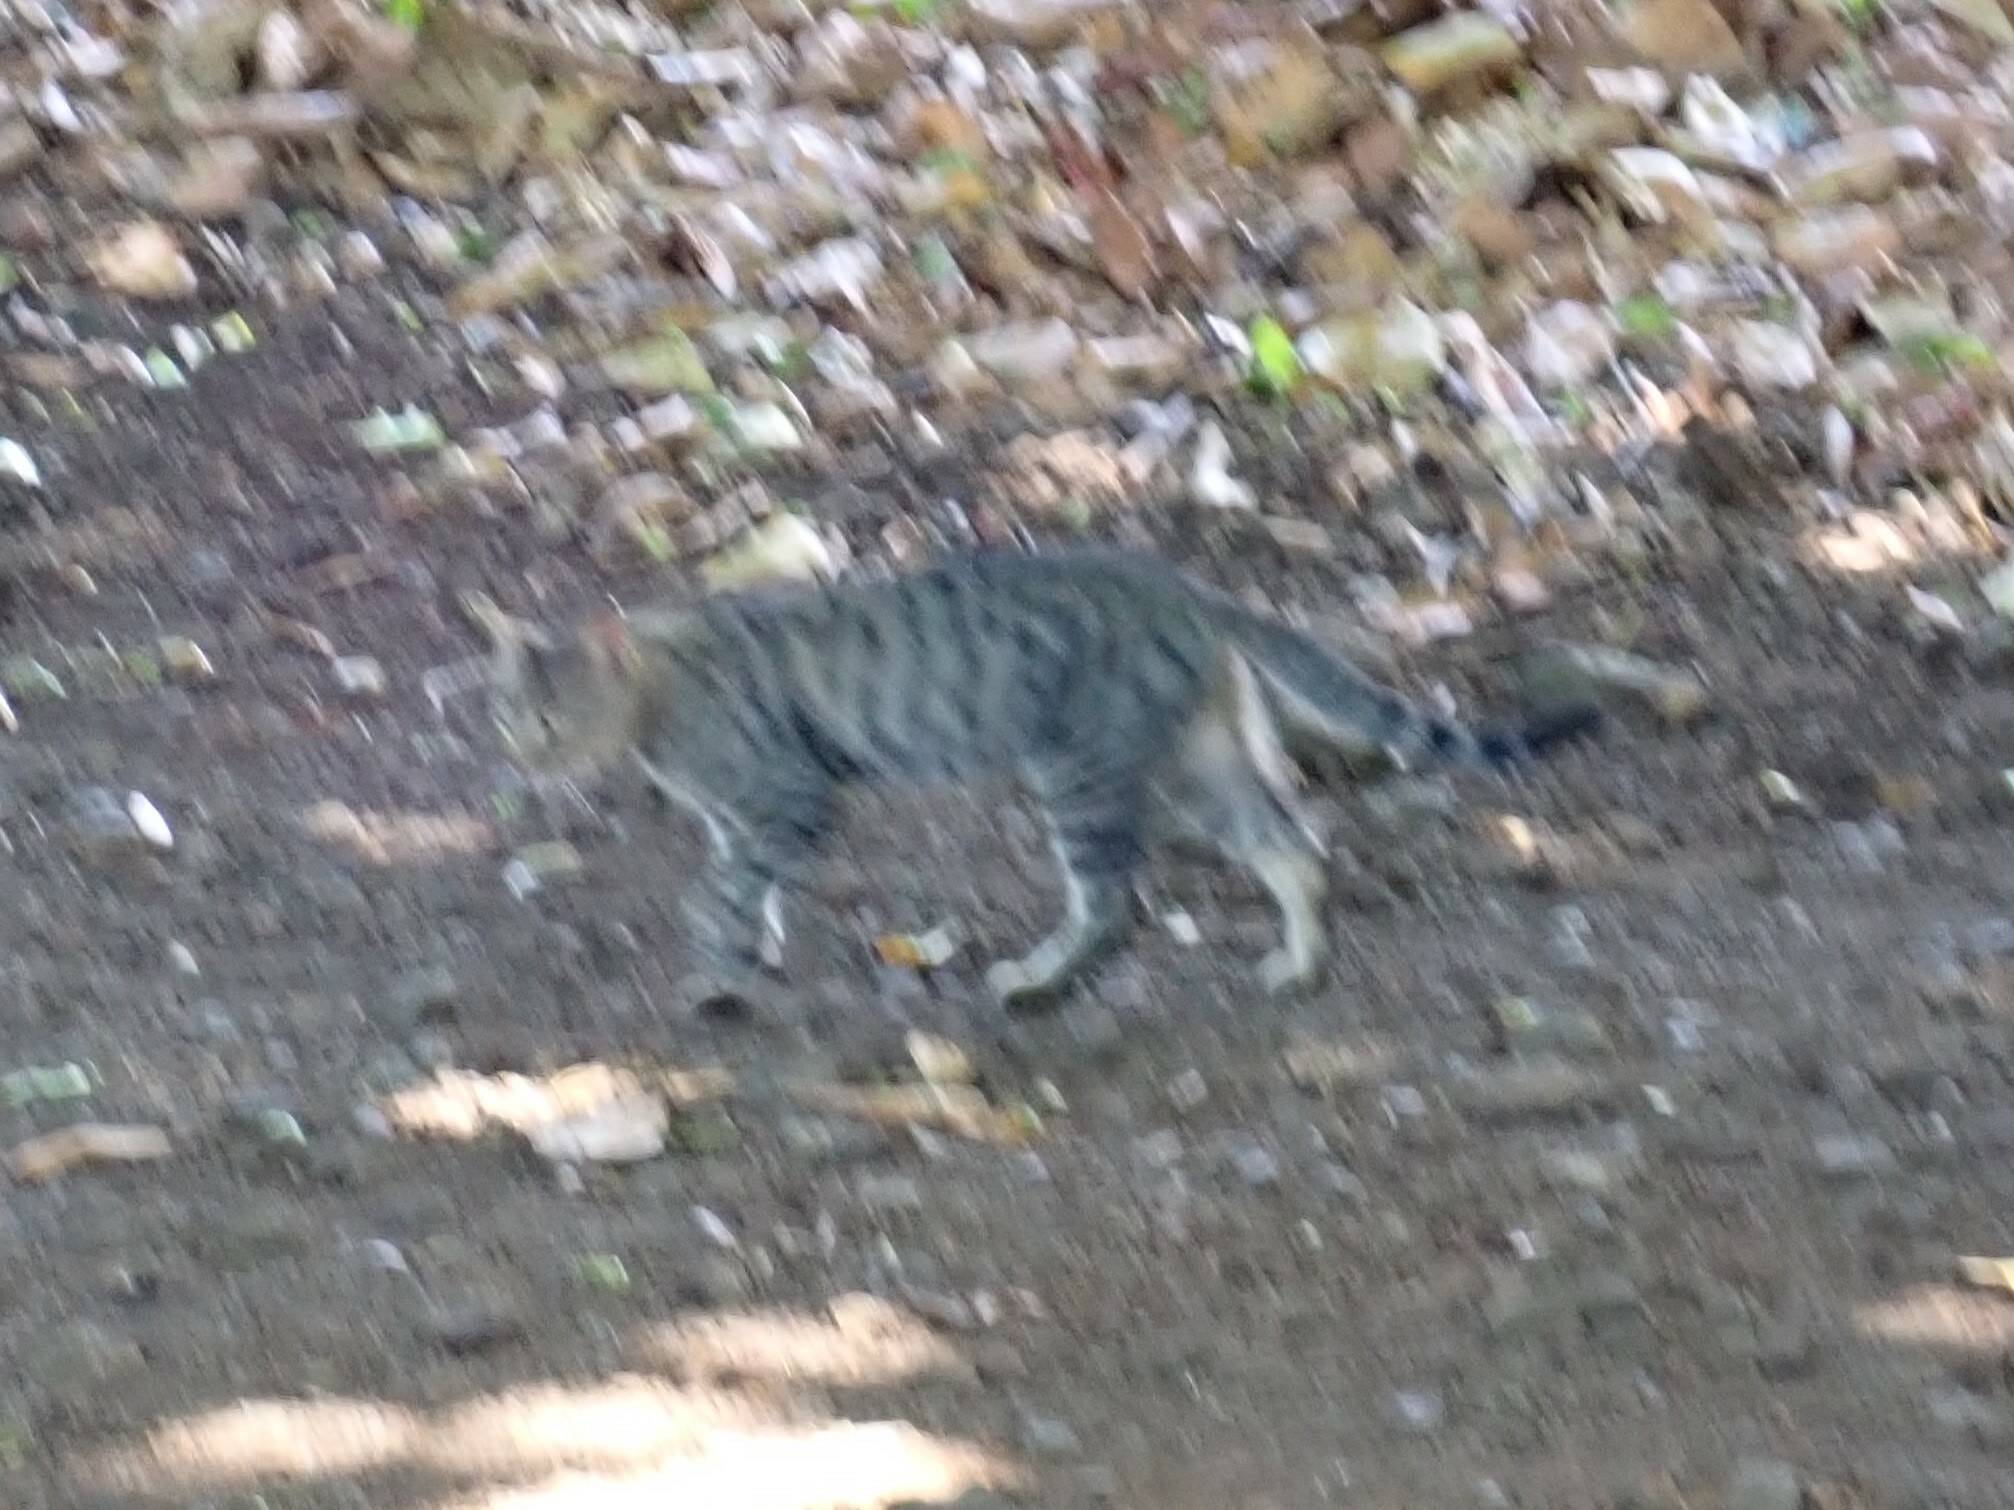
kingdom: Animalia
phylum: Chordata
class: Mammalia
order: Carnivora
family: Felidae
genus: Felis
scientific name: Felis catus
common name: Domestic cat
